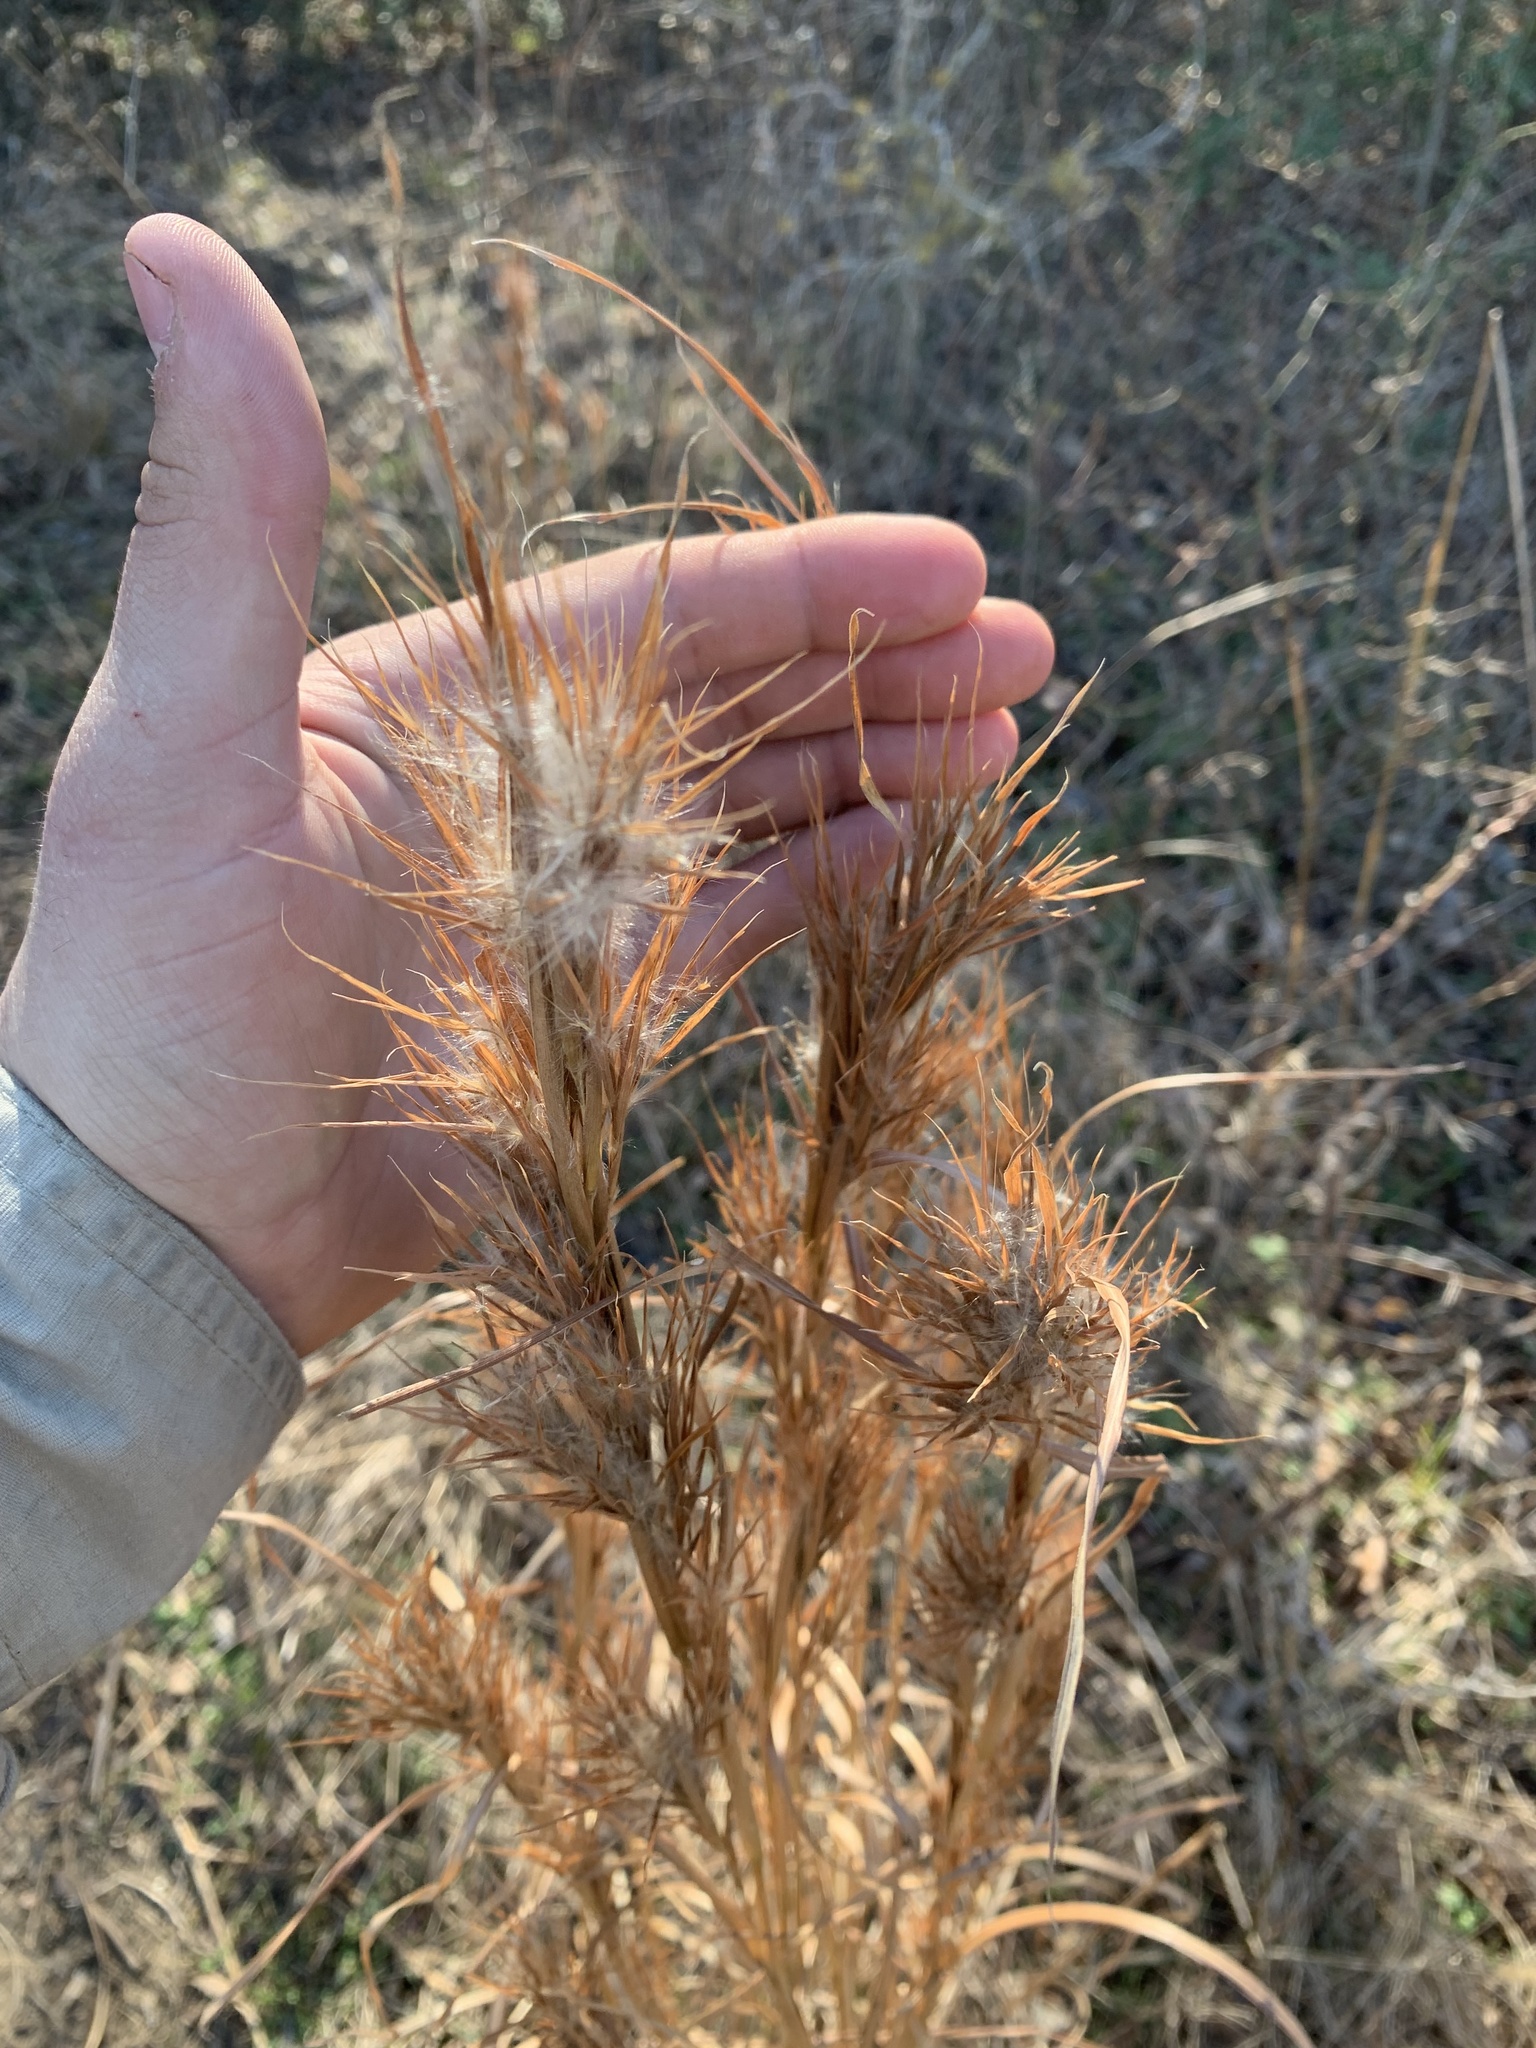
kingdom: Plantae
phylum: Tracheophyta
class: Liliopsida
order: Poales
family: Poaceae
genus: Andropogon
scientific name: Andropogon tenuispatheus
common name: Bushy bluestem
